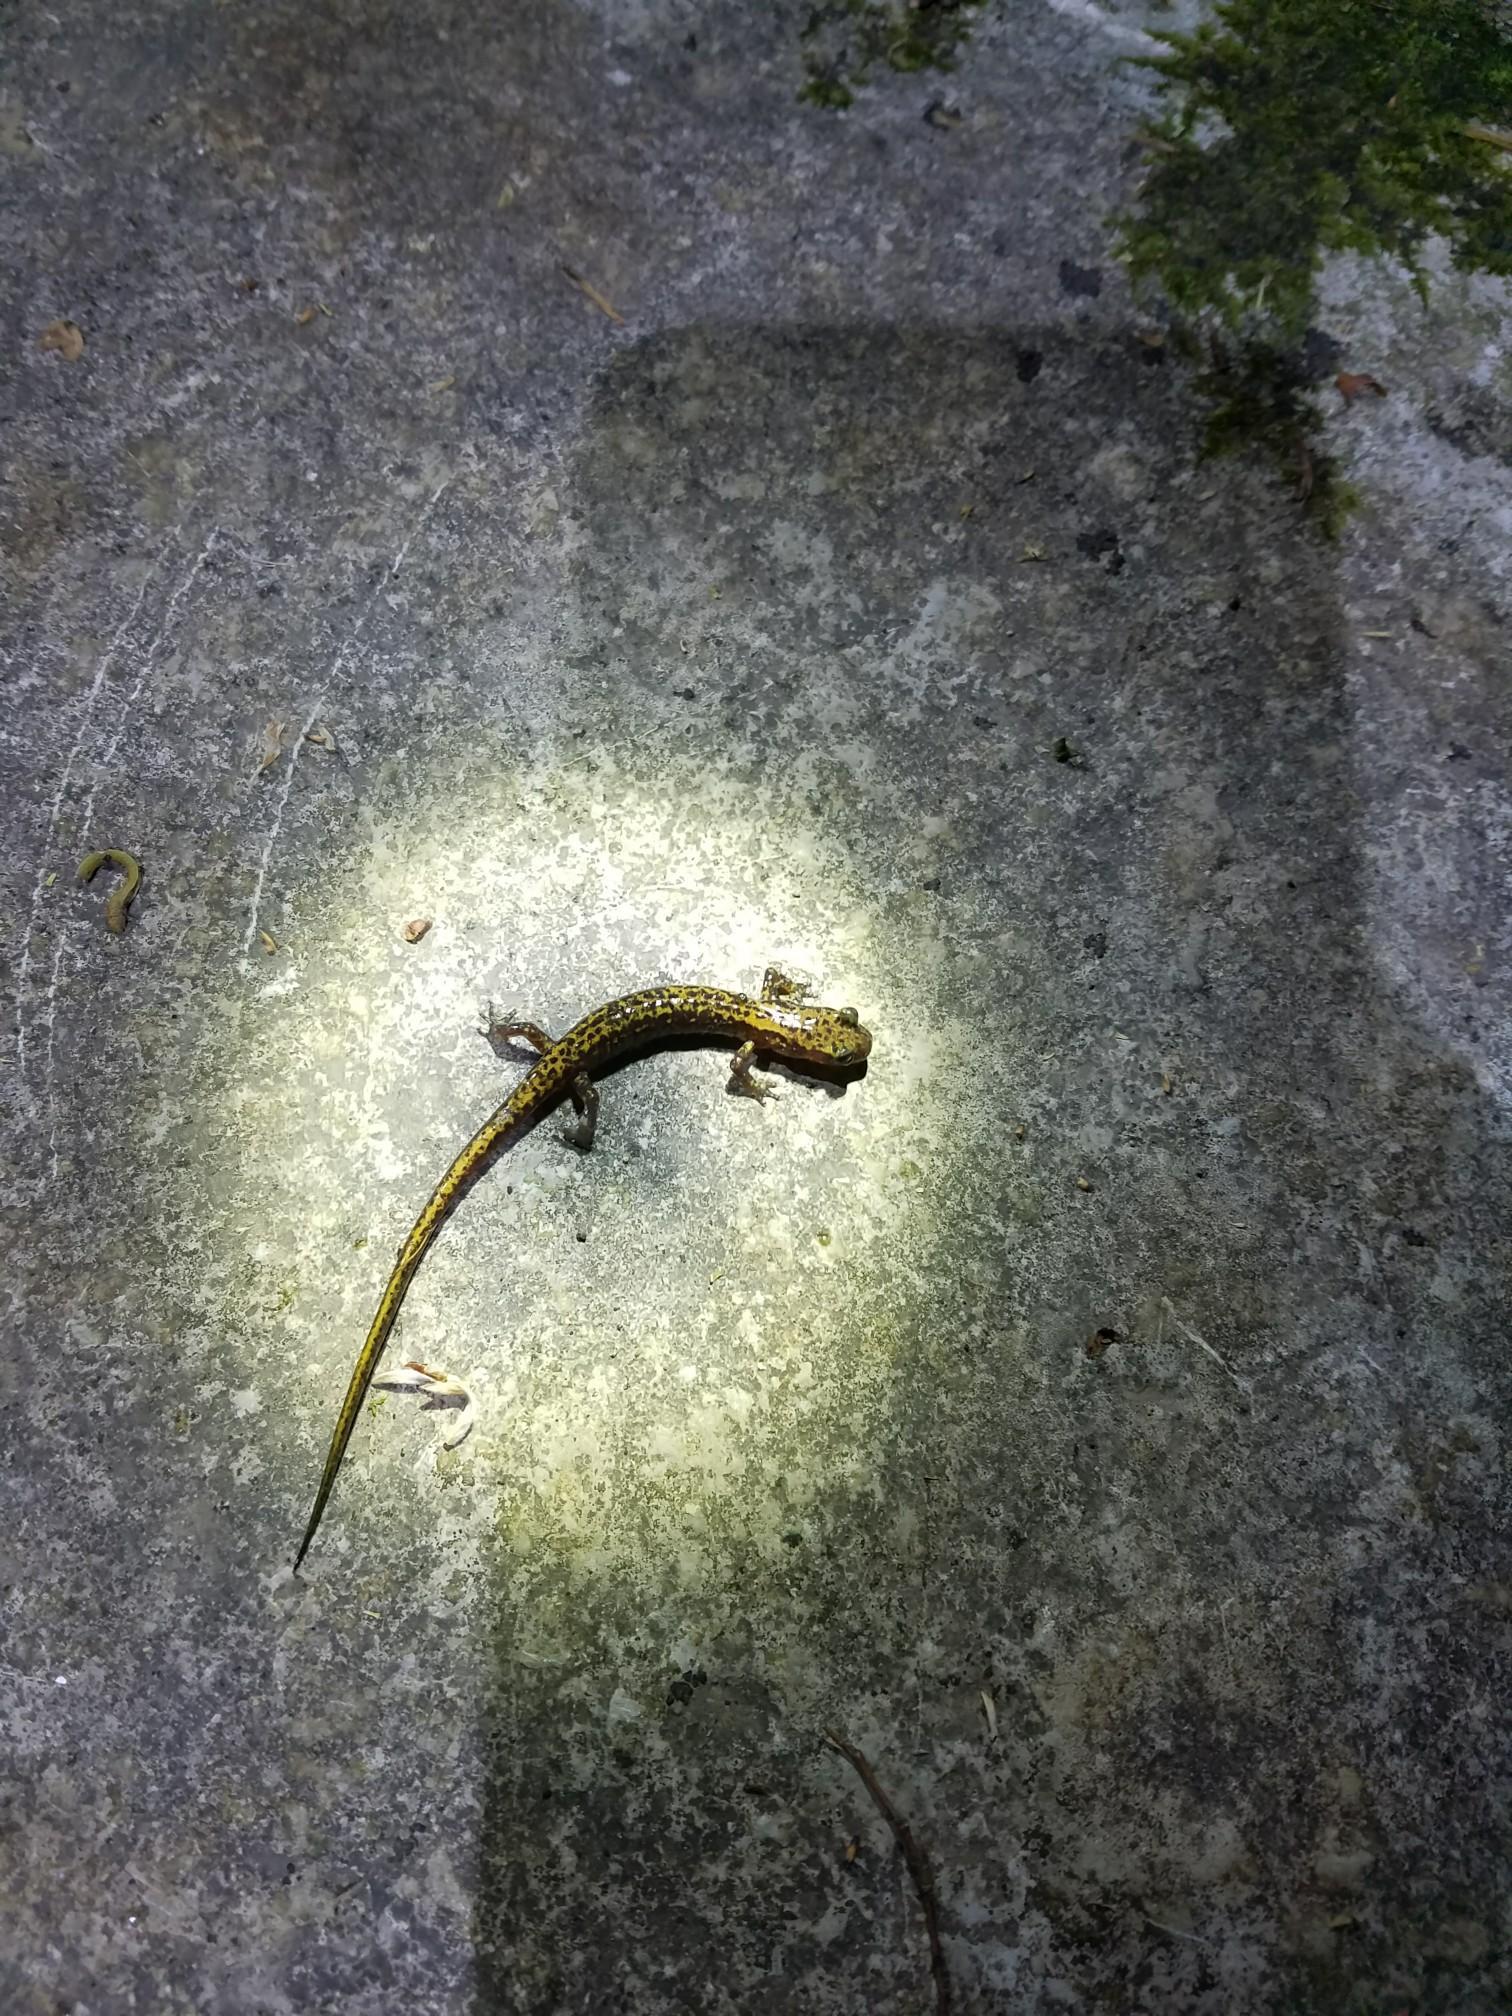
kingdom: Animalia
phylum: Chordata
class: Amphibia
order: Caudata
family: Plethodontidae
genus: Eurycea
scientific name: Eurycea longicauda
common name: Long-tailed salamander
